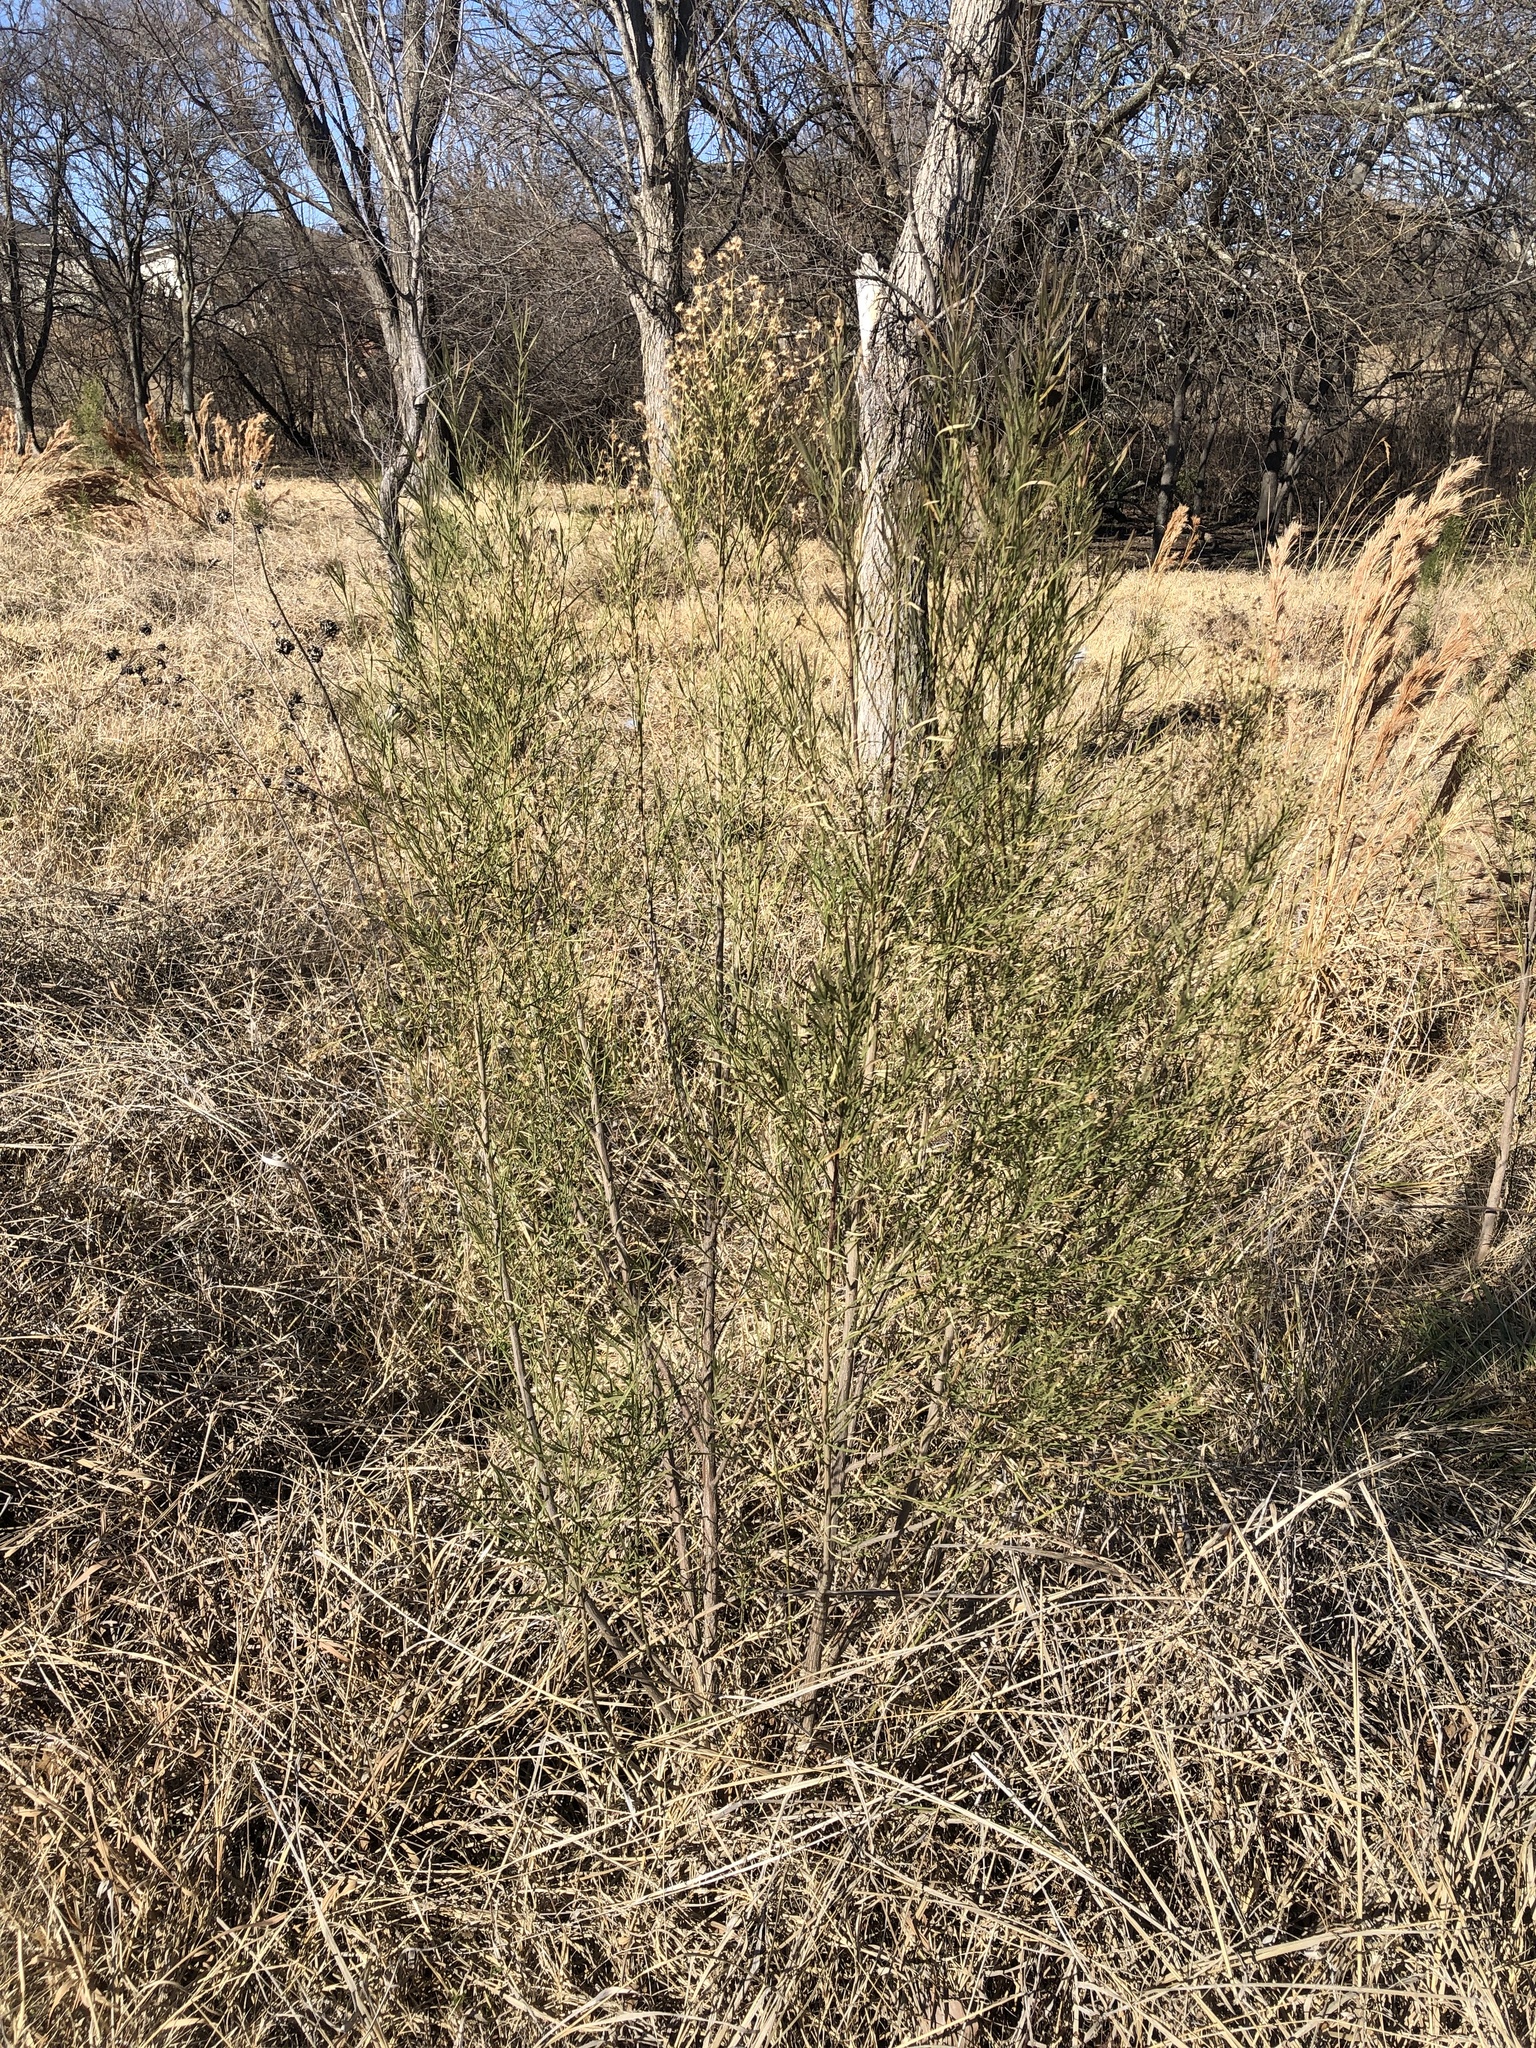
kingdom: Plantae
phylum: Tracheophyta
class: Magnoliopsida
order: Asterales
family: Asteraceae
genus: Baccharis
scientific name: Baccharis neglecta
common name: Roosevelt-weed
